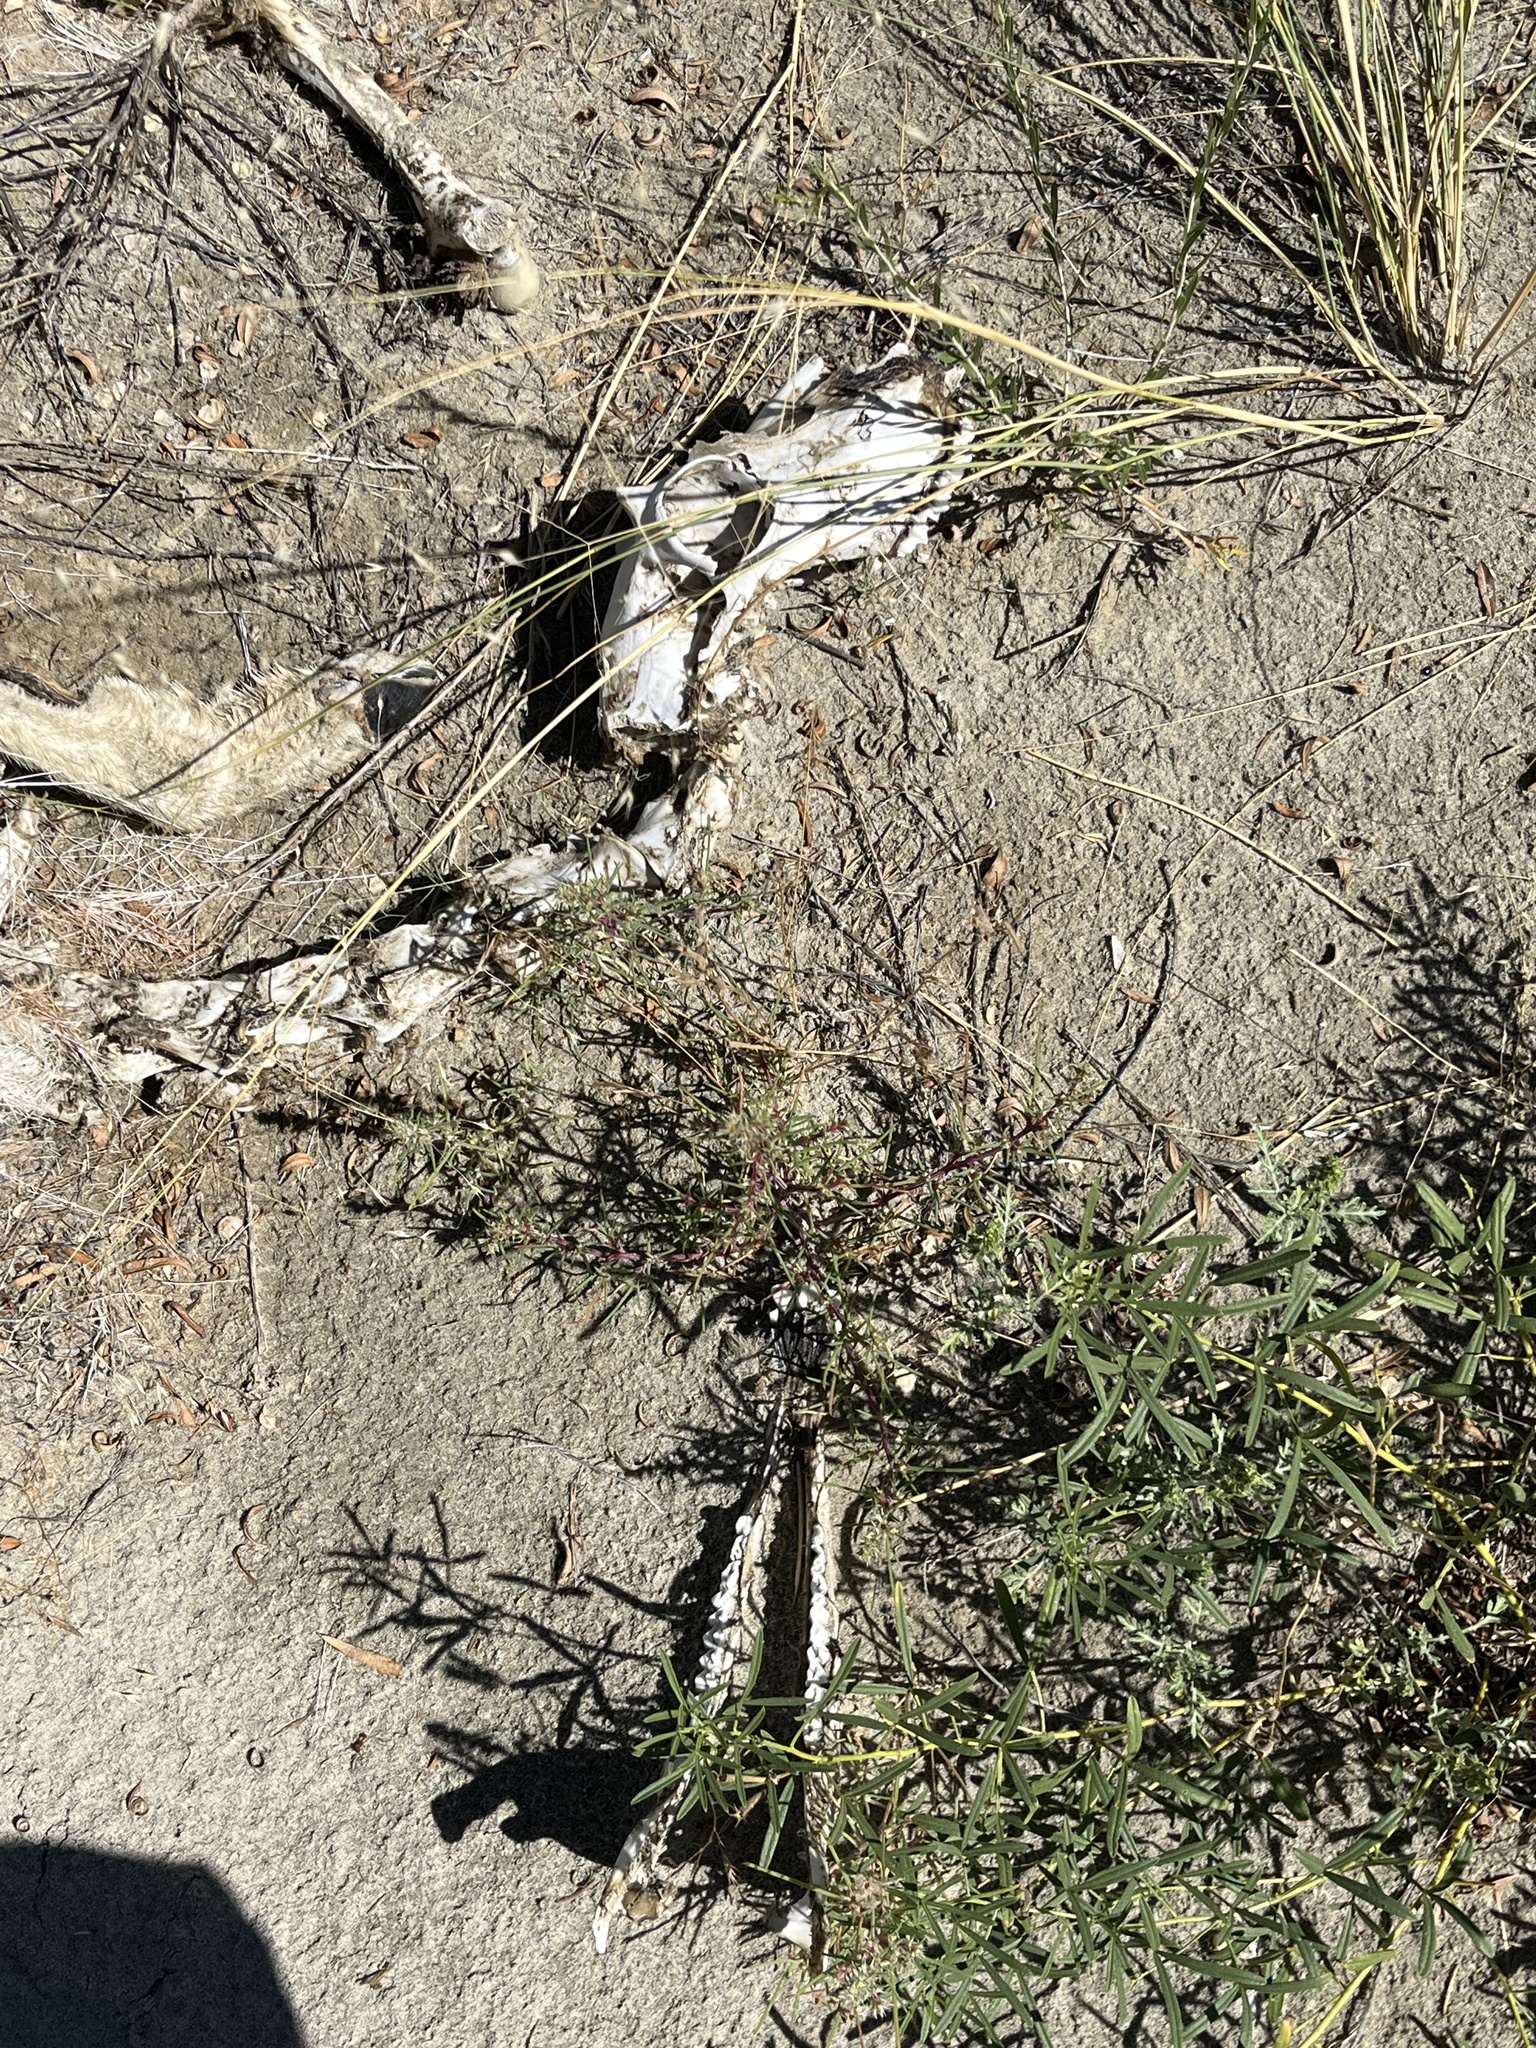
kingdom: Animalia
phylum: Chordata
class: Mammalia
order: Artiodactyla
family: Antilocapridae
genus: Antilocapra
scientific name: Antilocapra americana
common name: Pronghorn
